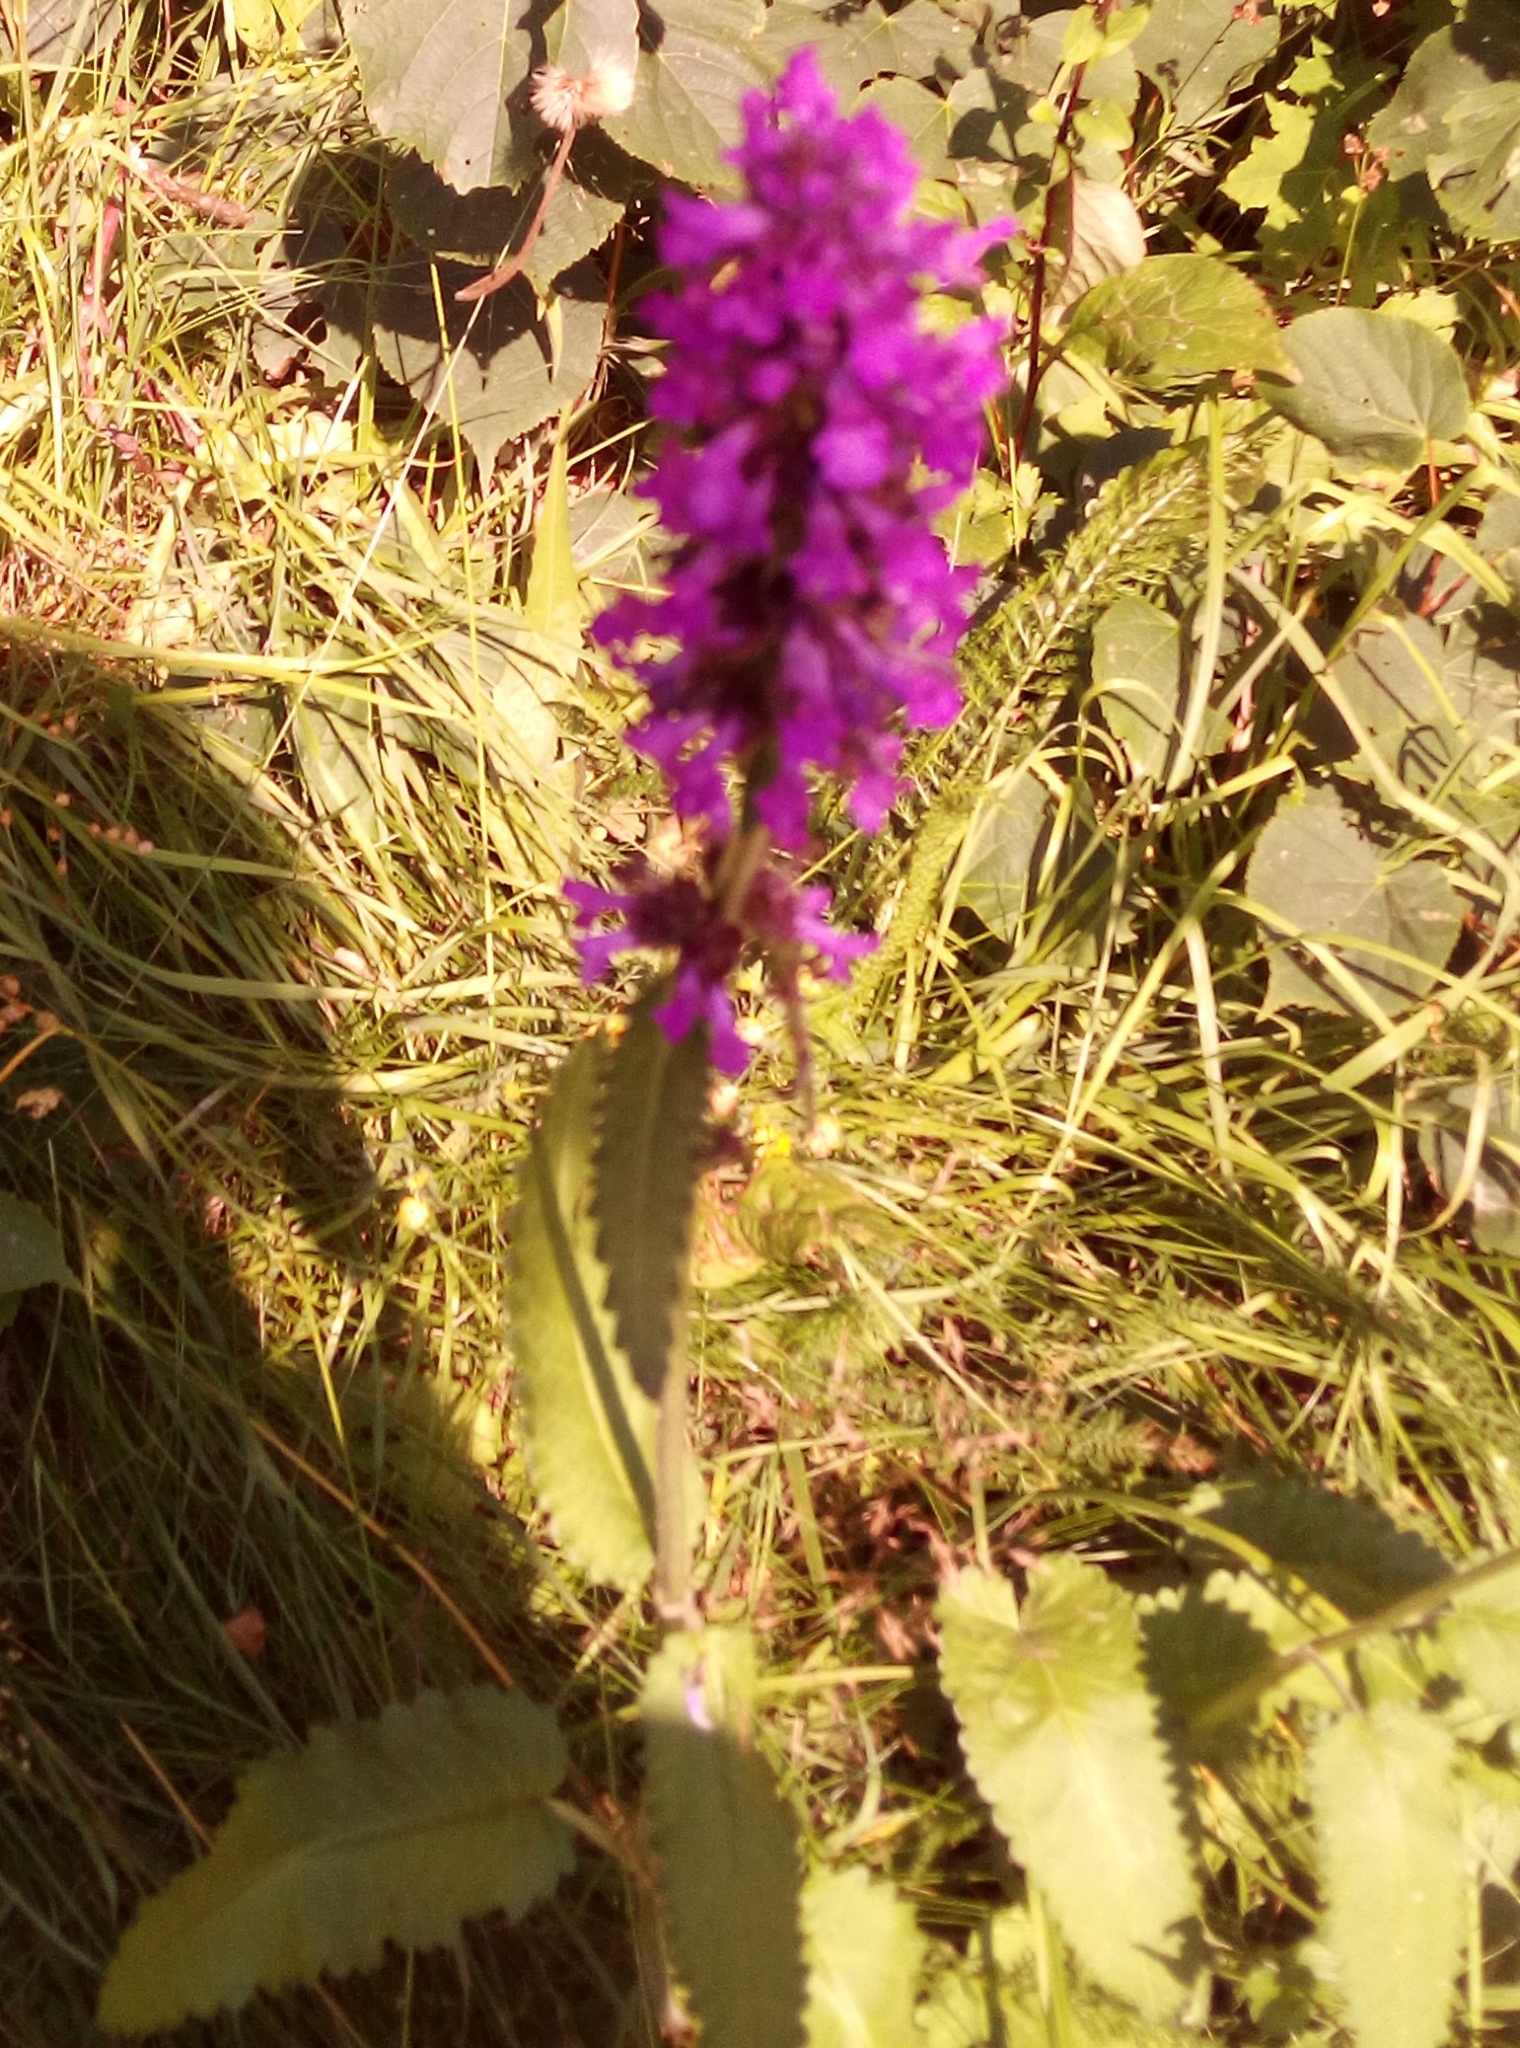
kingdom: Plantae
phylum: Tracheophyta
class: Magnoliopsida
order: Lamiales
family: Lamiaceae
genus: Betonica
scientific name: Betonica officinalis
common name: Bishop's-wort
